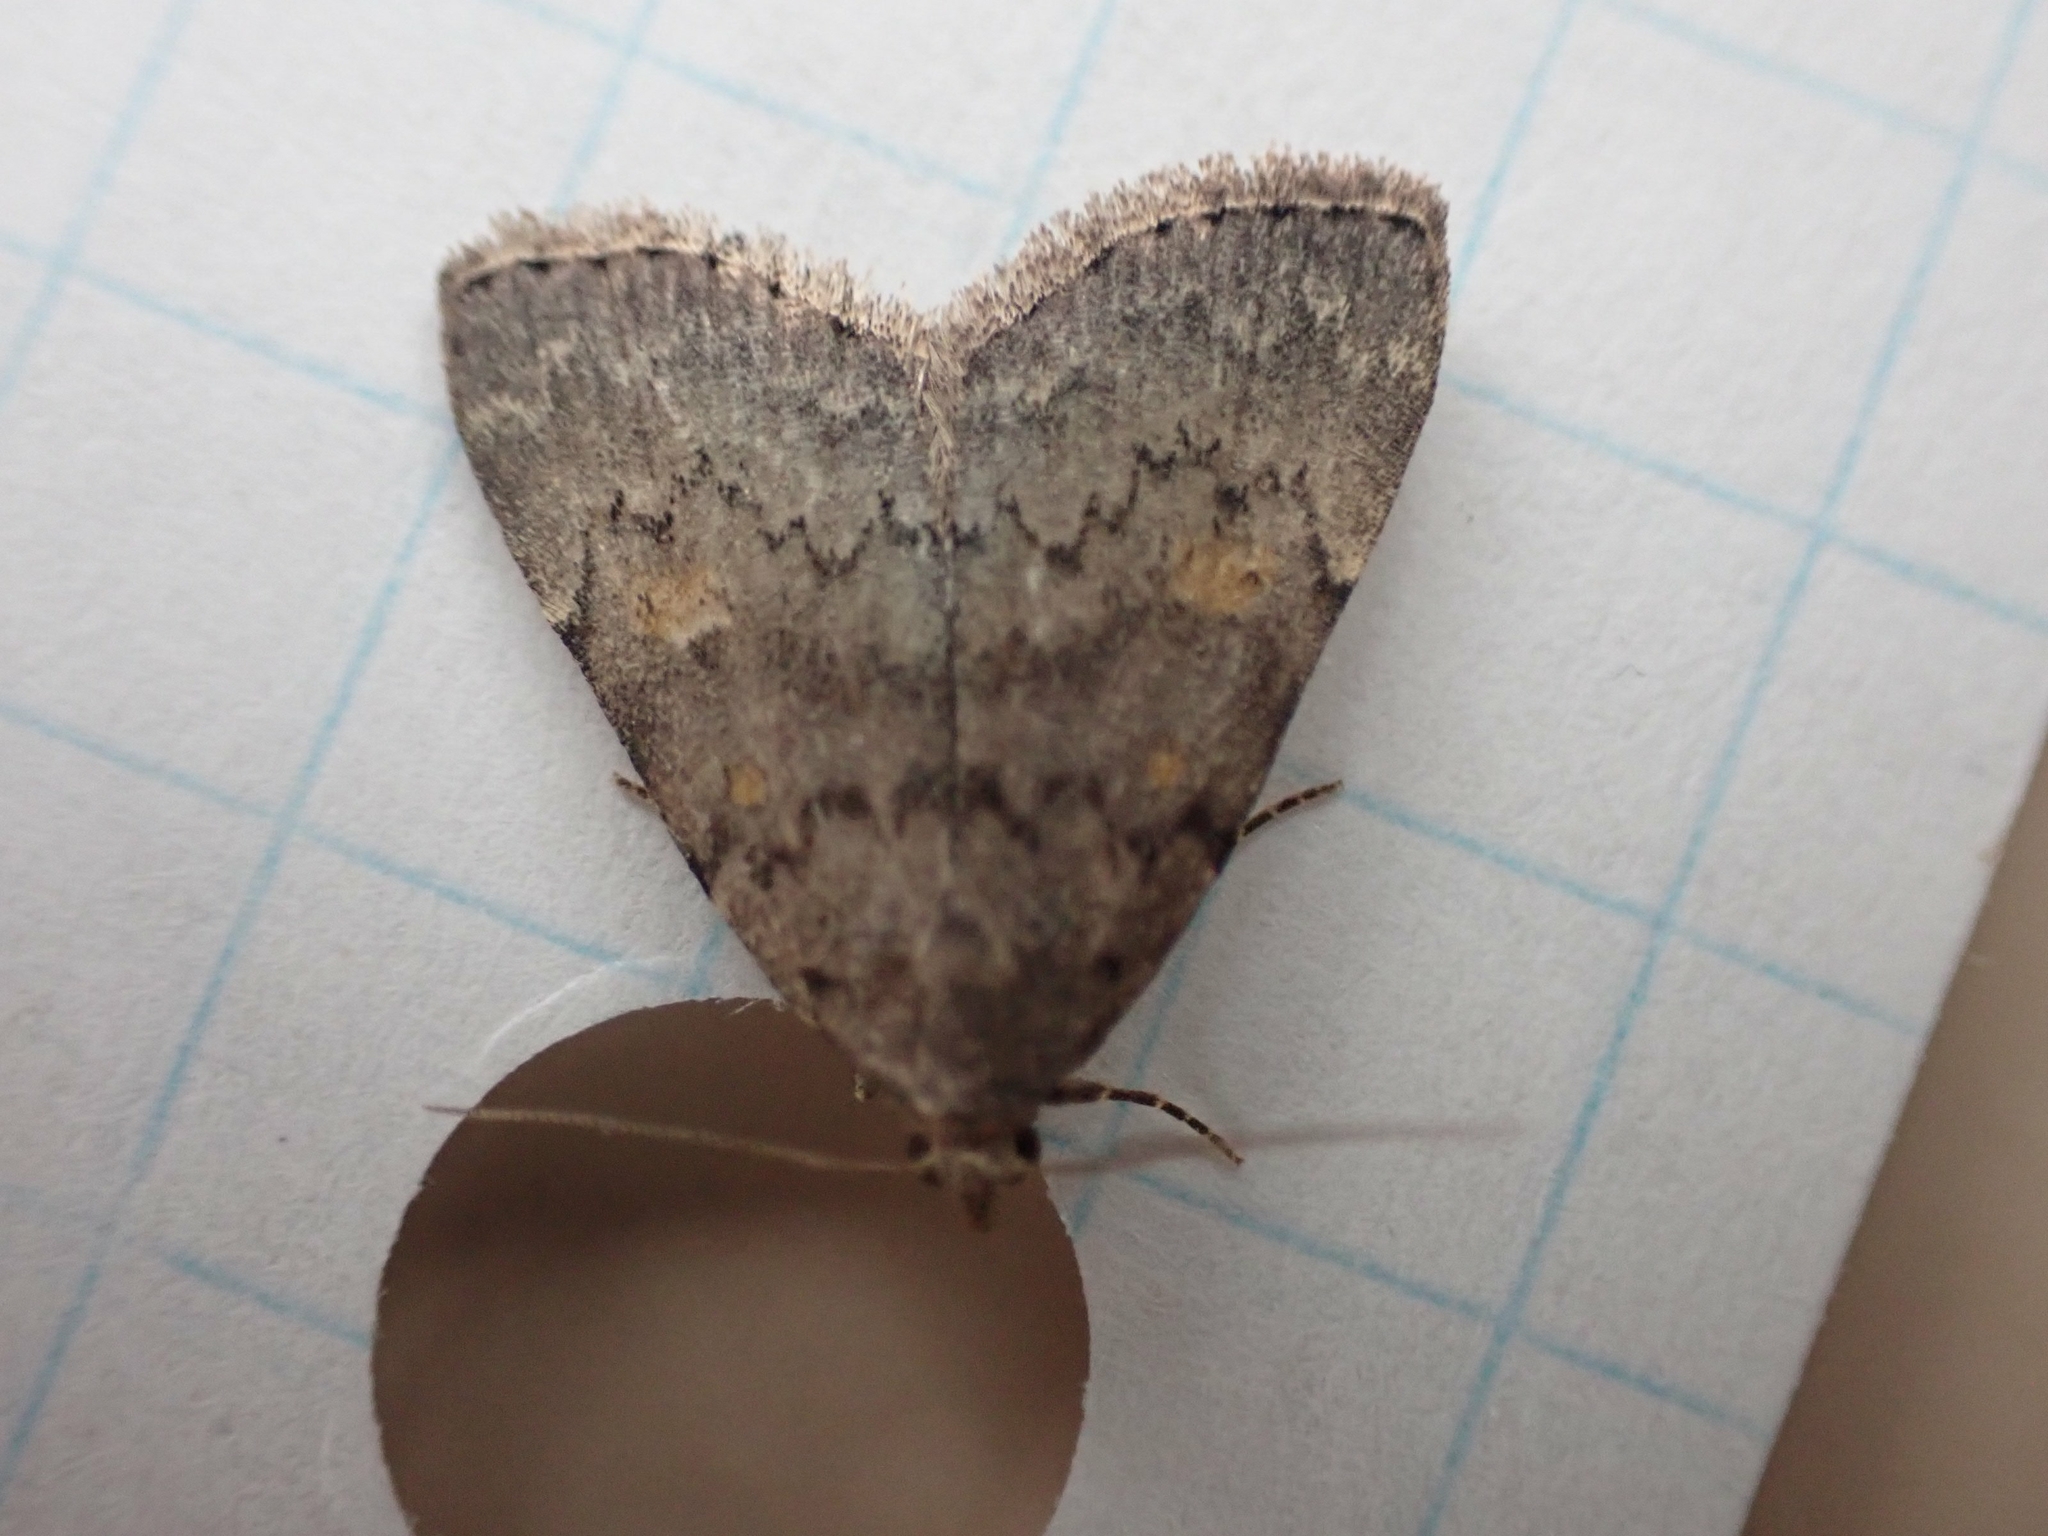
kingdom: Animalia
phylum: Arthropoda
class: Insecta
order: Lepidoptera
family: Erebidae
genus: Idia
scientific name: Idia aemula
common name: Common idia moth
